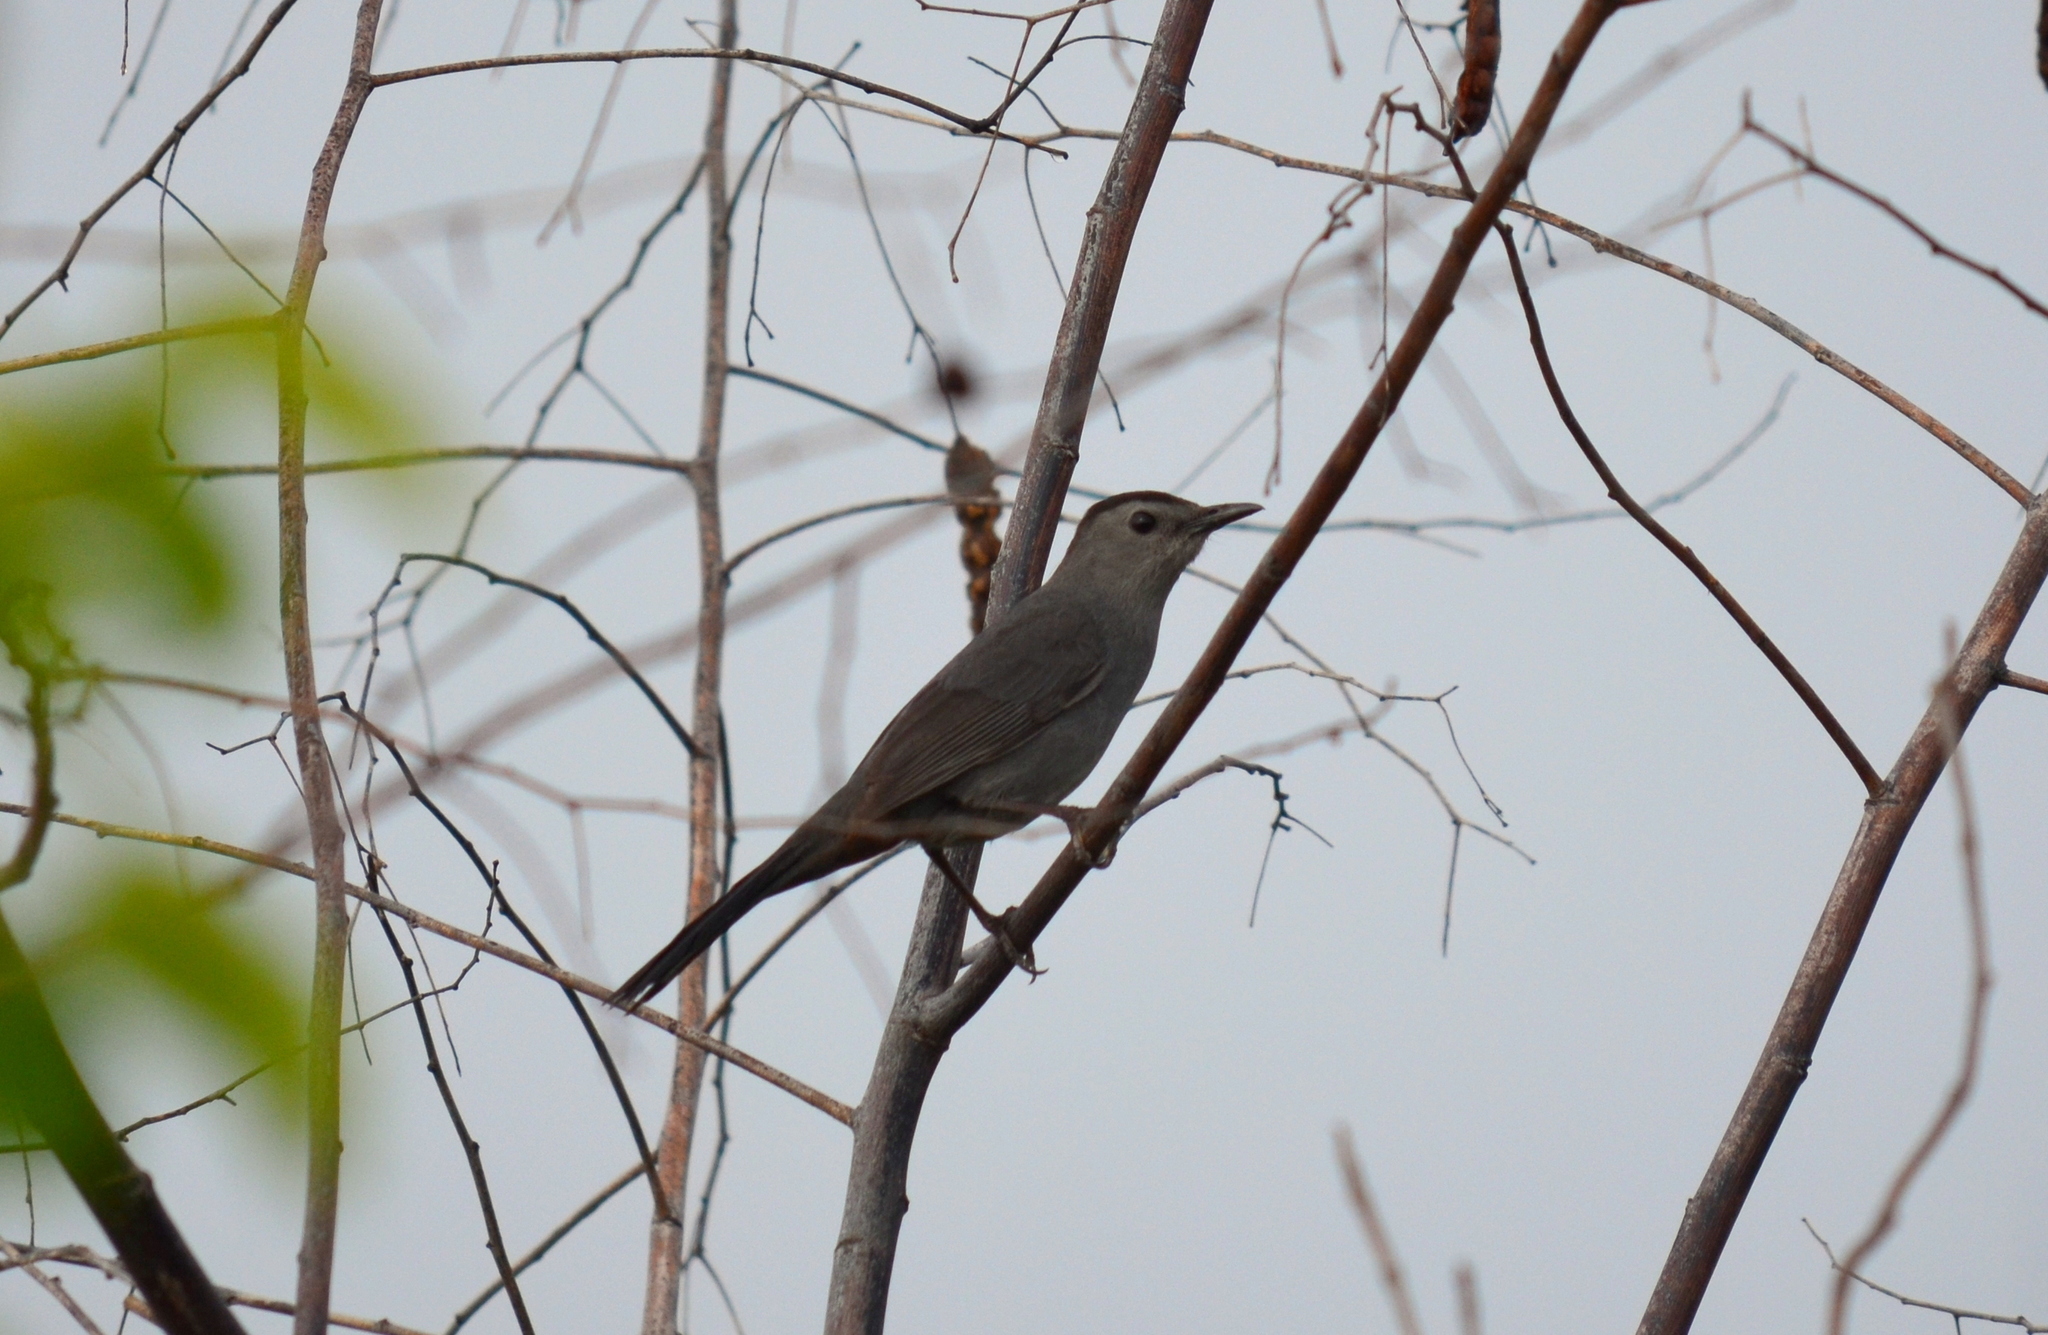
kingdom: Animalia
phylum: Chordata
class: Aves
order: Passeriformes
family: Mimidae
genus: Dumetella
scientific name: Dumetella carolinensis
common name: Gray catbird
